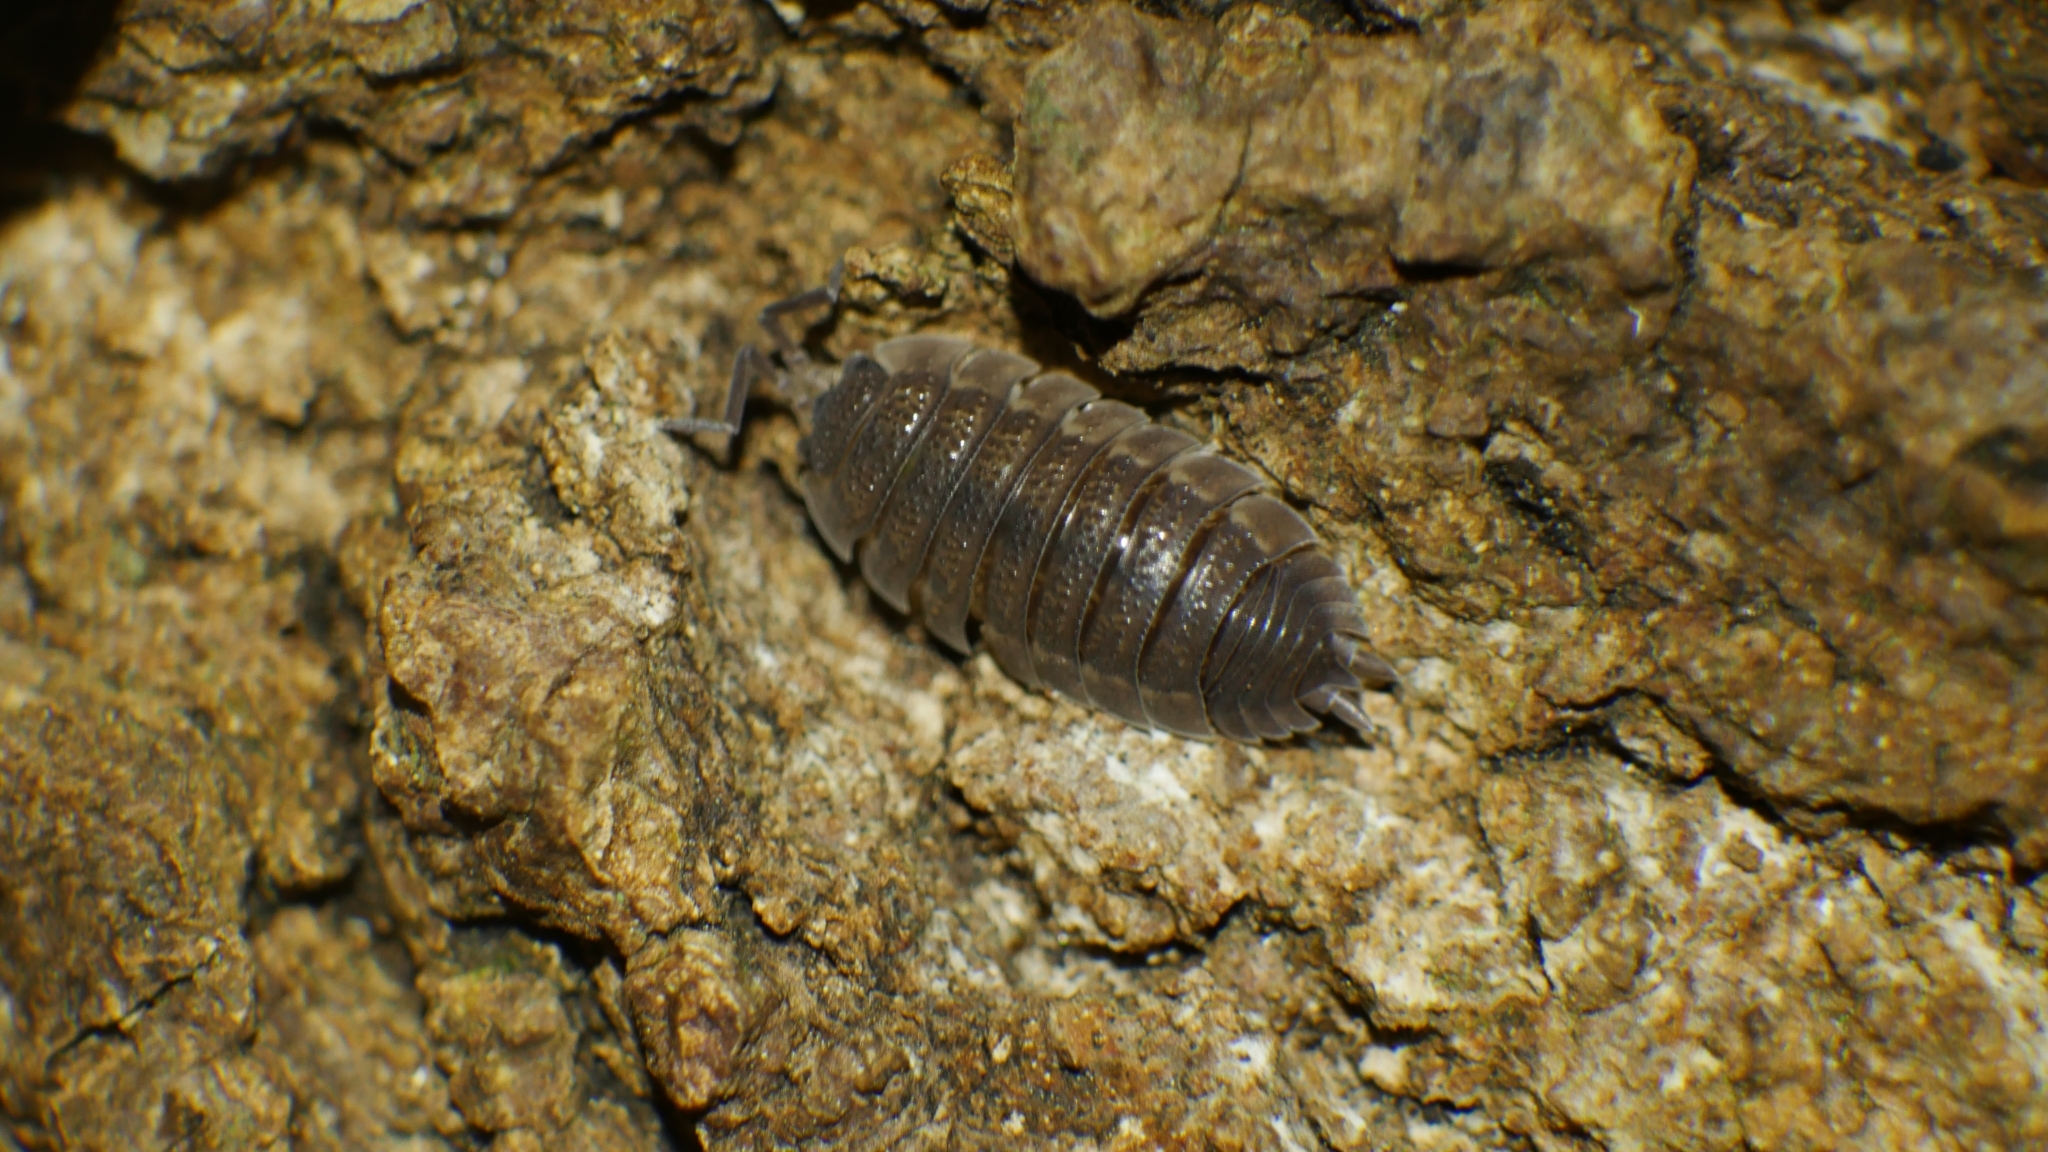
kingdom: Animalia
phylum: Arthropoda
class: Malacostraca
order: Isopoda
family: Porcellionidae
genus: Porcellio
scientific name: Porcellio scaber
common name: Common rough woodlouse
